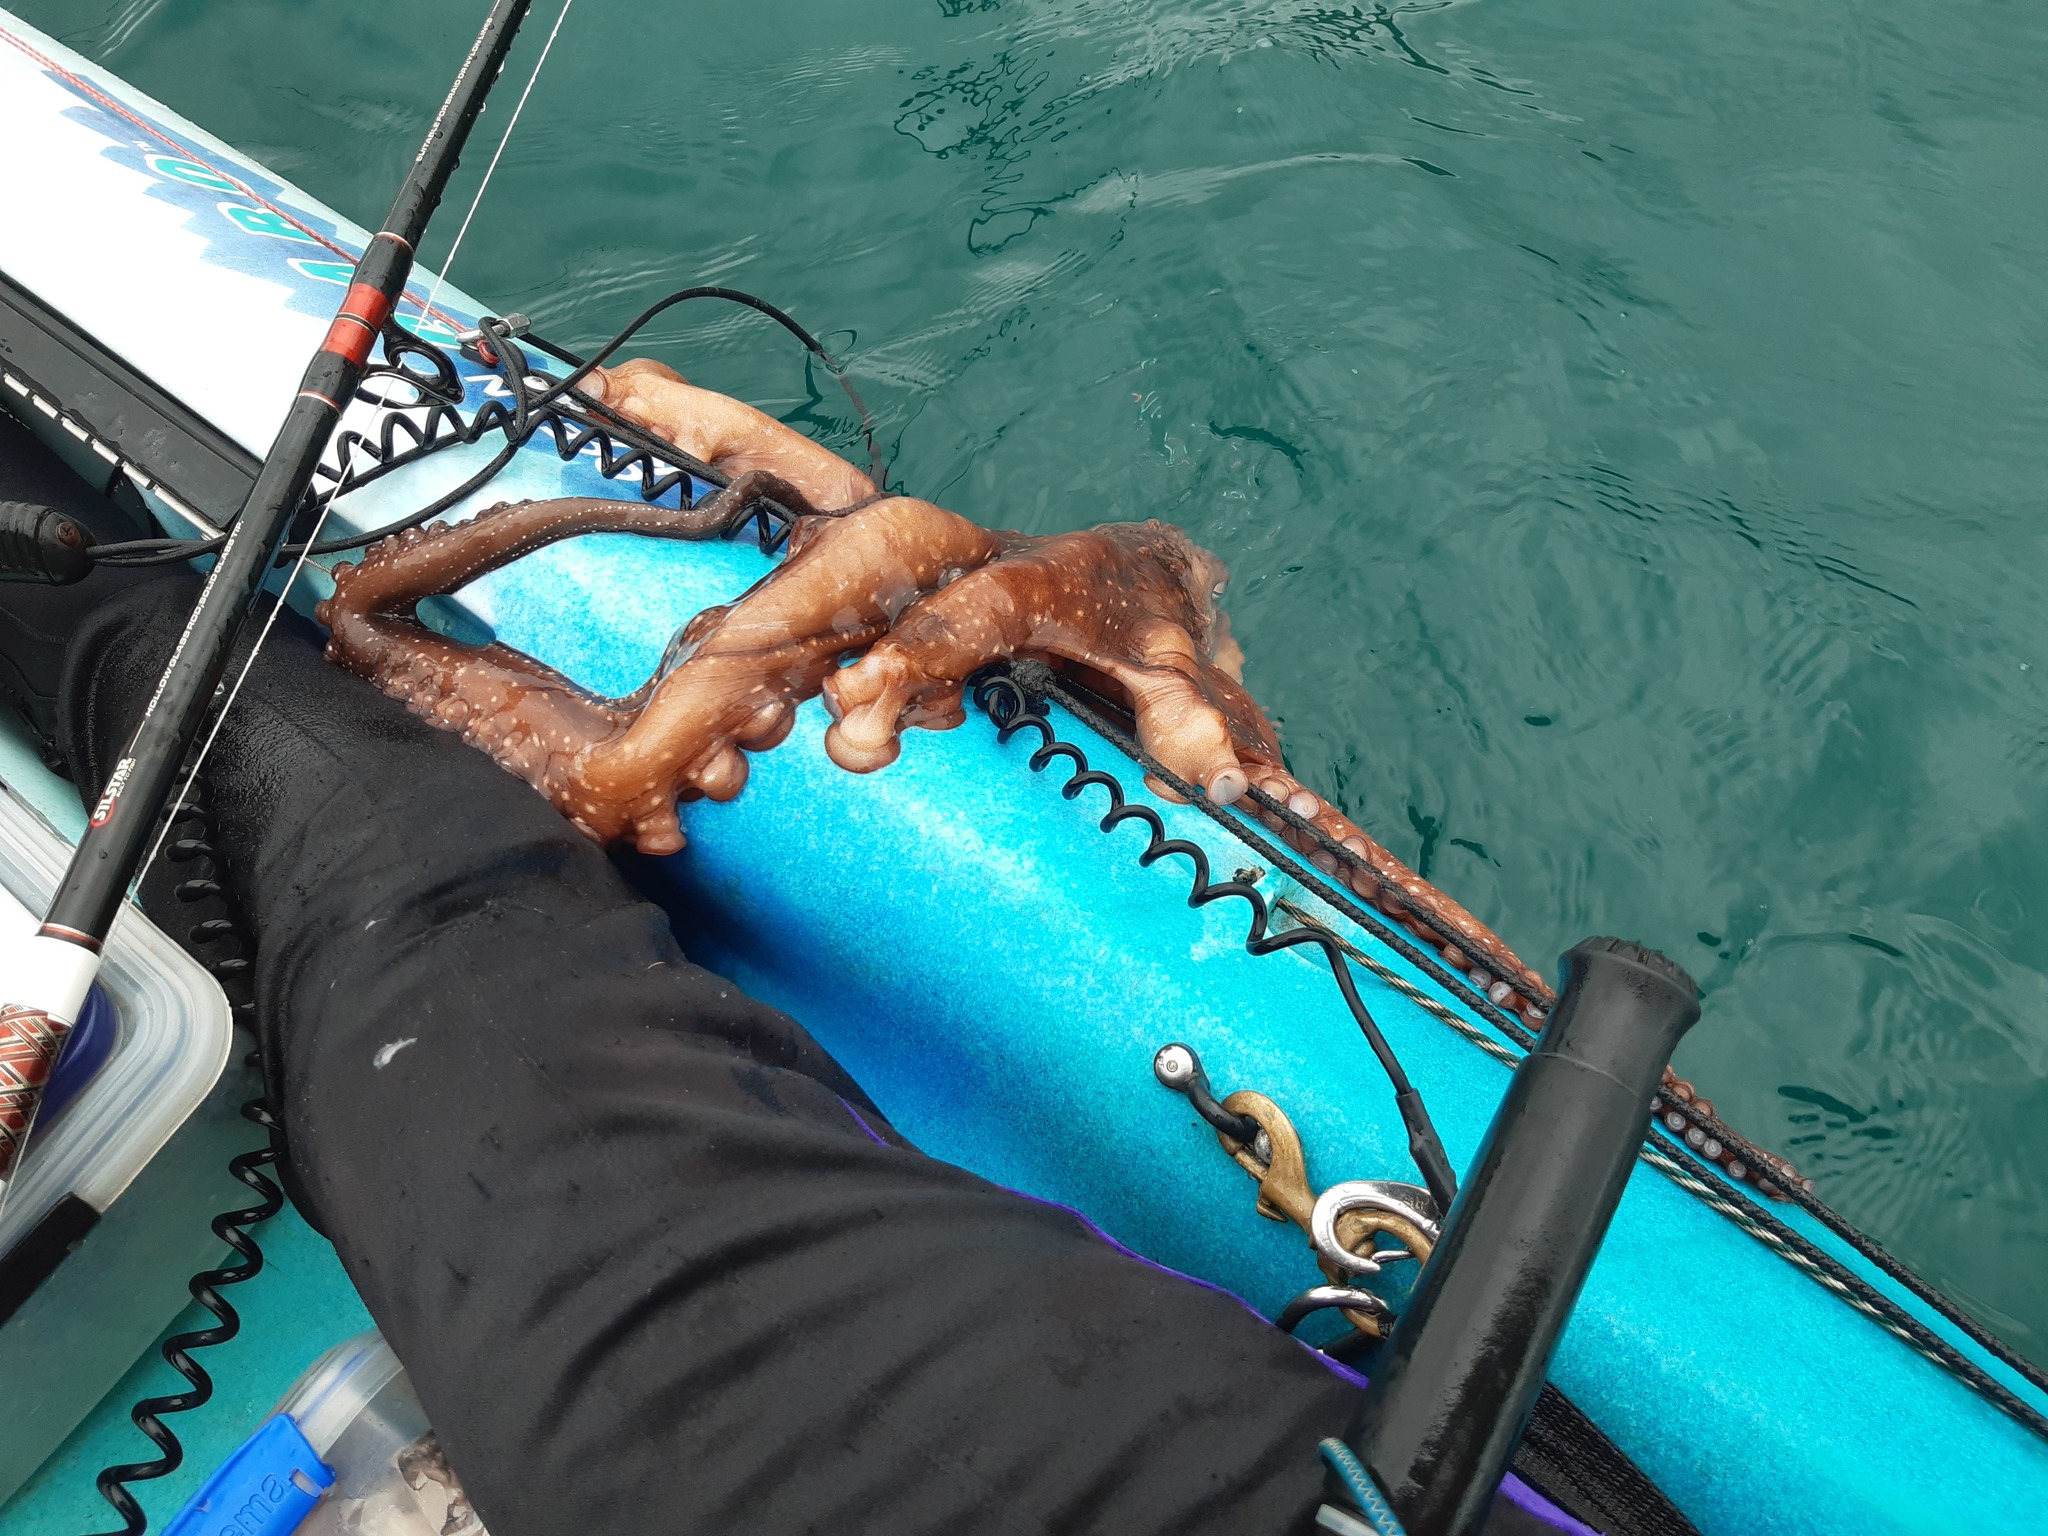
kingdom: Animalia
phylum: Mollusca
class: Cephalopoda
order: Octopoda
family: Octopodidae
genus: Macroctopus
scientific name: Macroctopus maorum
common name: Maori octopus
